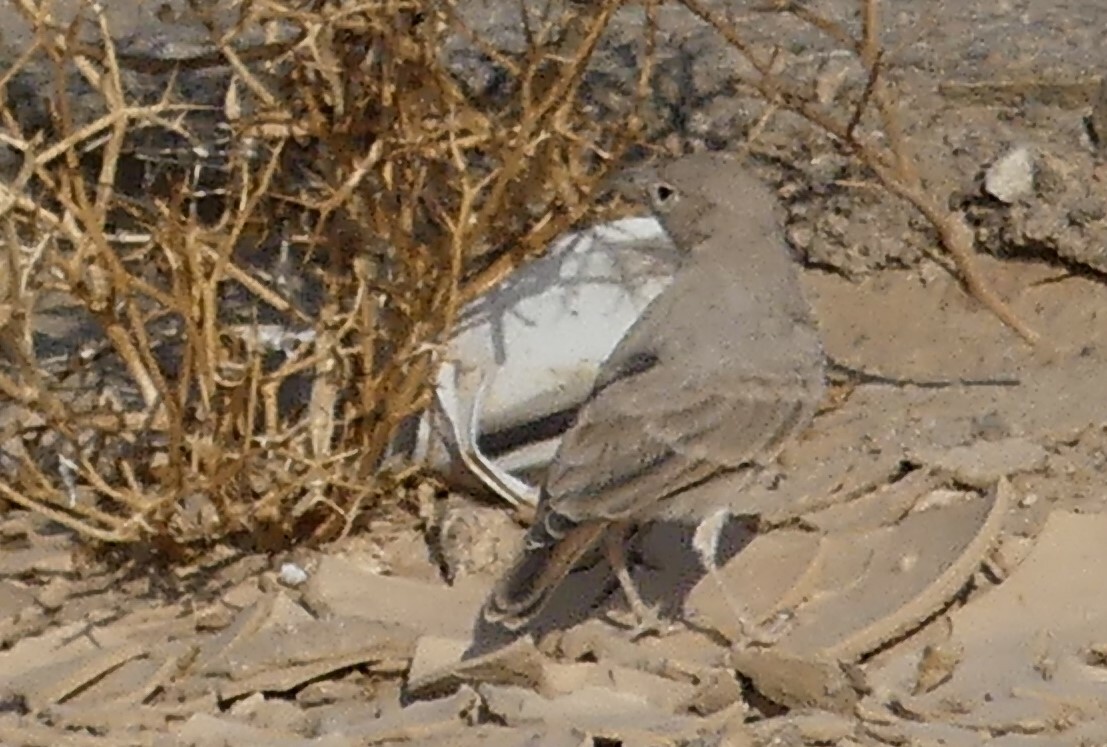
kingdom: Animalia
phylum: Chordata
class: Aves
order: Passeriformes
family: Alaudidae
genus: Ammomanes
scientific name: Ammomanes deserti
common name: Desert lark
